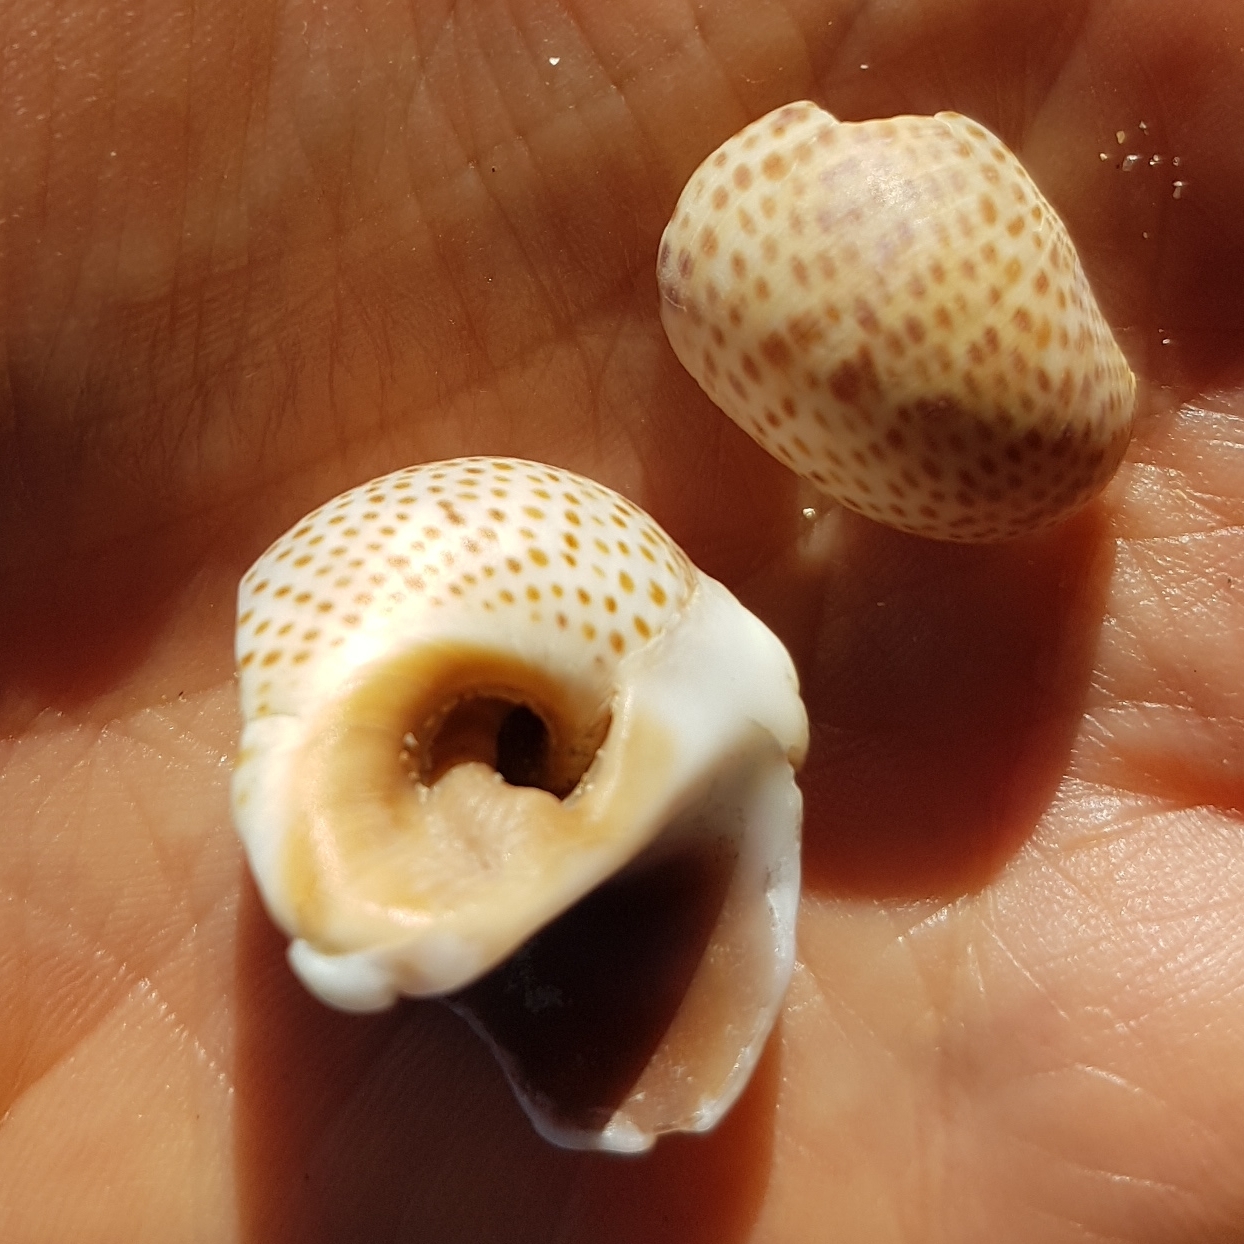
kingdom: Animalia
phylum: Mollusca
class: Gastropoda
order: Littorinimorpha
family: Naticidae
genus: Naticarius
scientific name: Naticarius stercusmuscarum
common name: Fly-speck moonsnail
